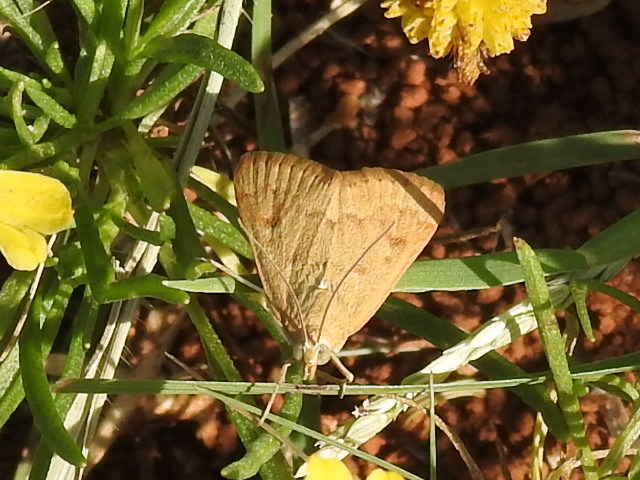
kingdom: Animalia
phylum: Arthropoda
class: Insecta
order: Lepidoptera
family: Crambidae
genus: Achyra
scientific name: Achyra rantalis
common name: Garden webworm
